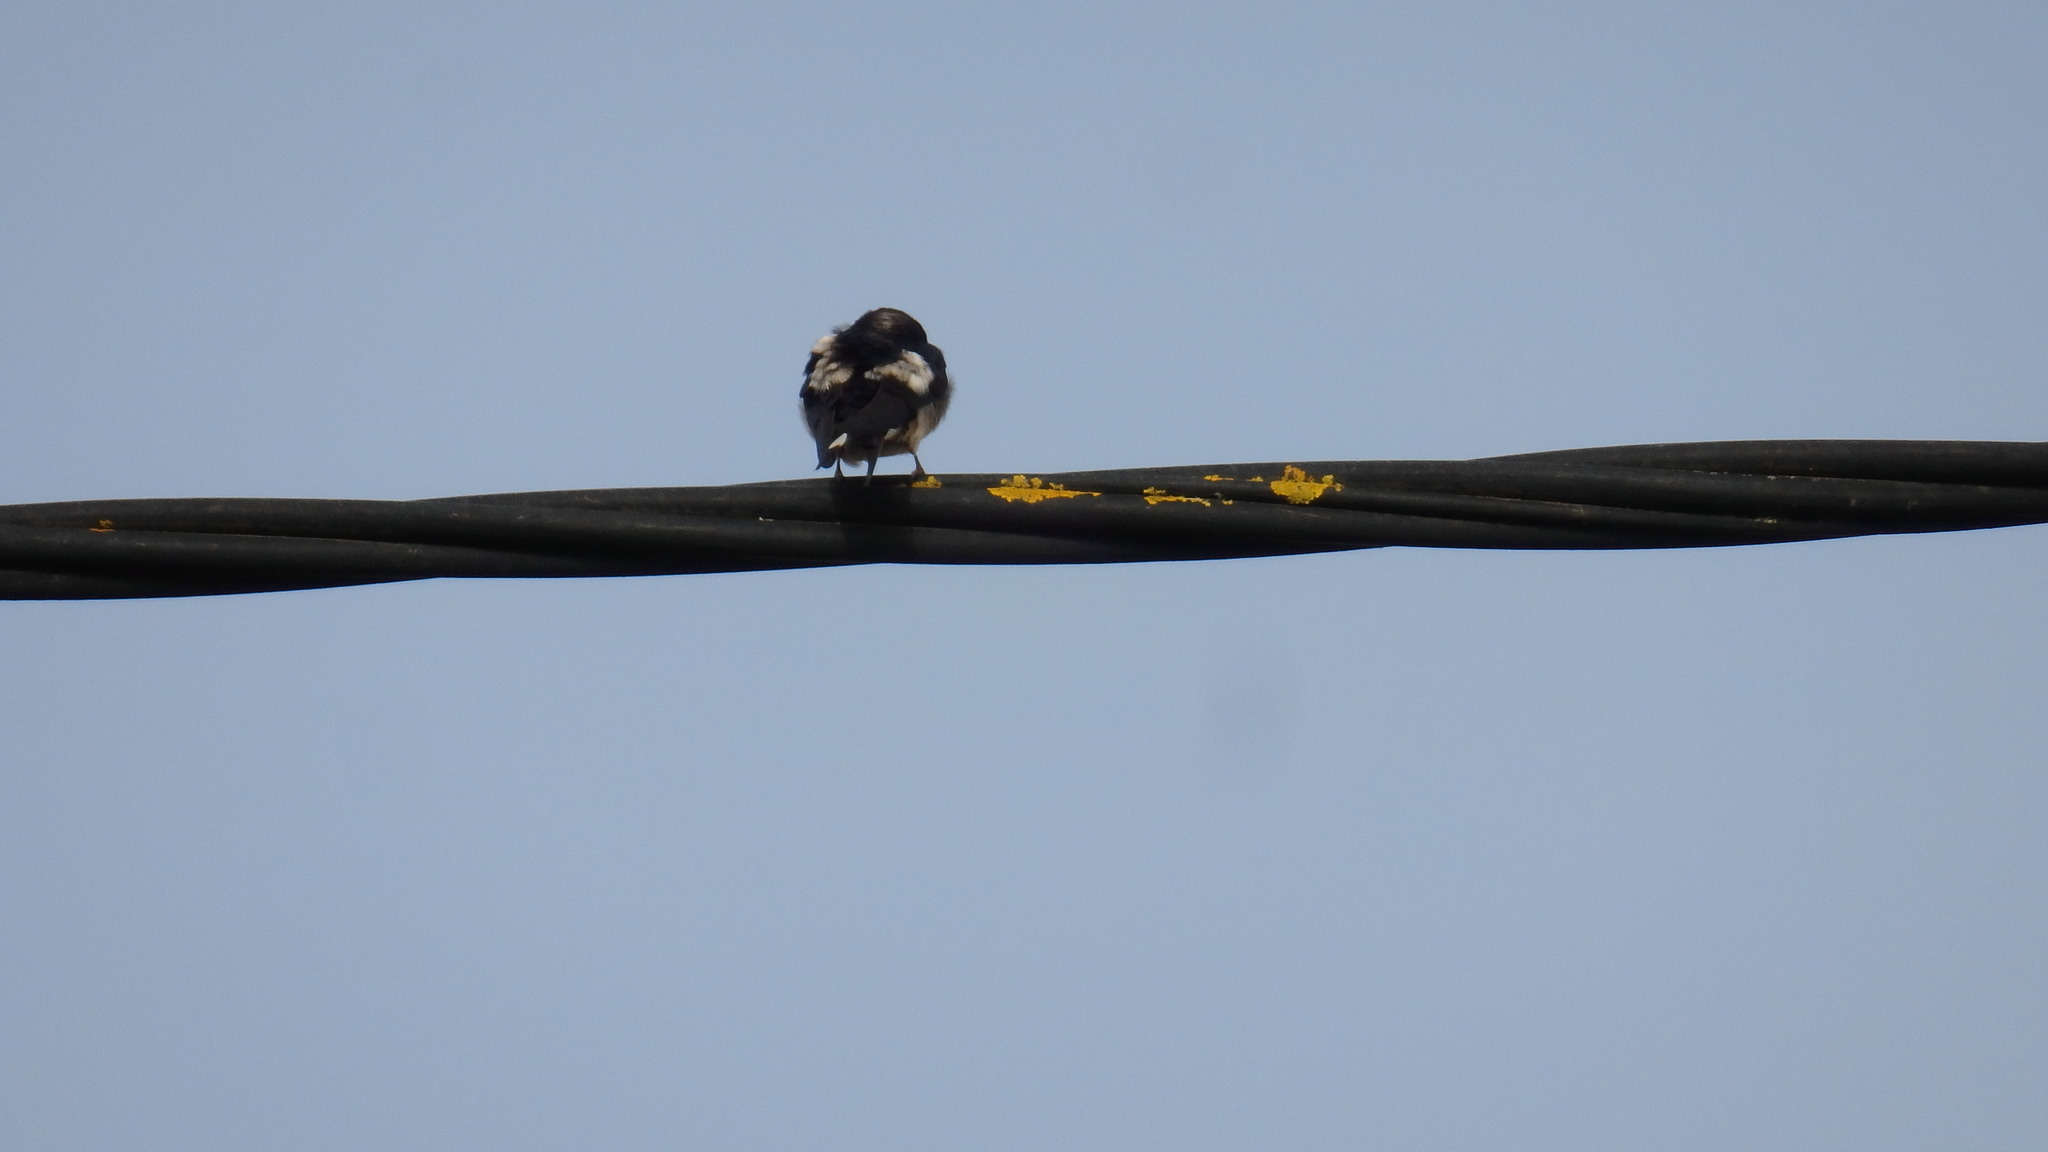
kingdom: Animalia
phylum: Chordata
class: Aves
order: Passeriformes
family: Hirundinidae
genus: Hirundo
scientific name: Hirundo rustica
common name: Barn swallow
